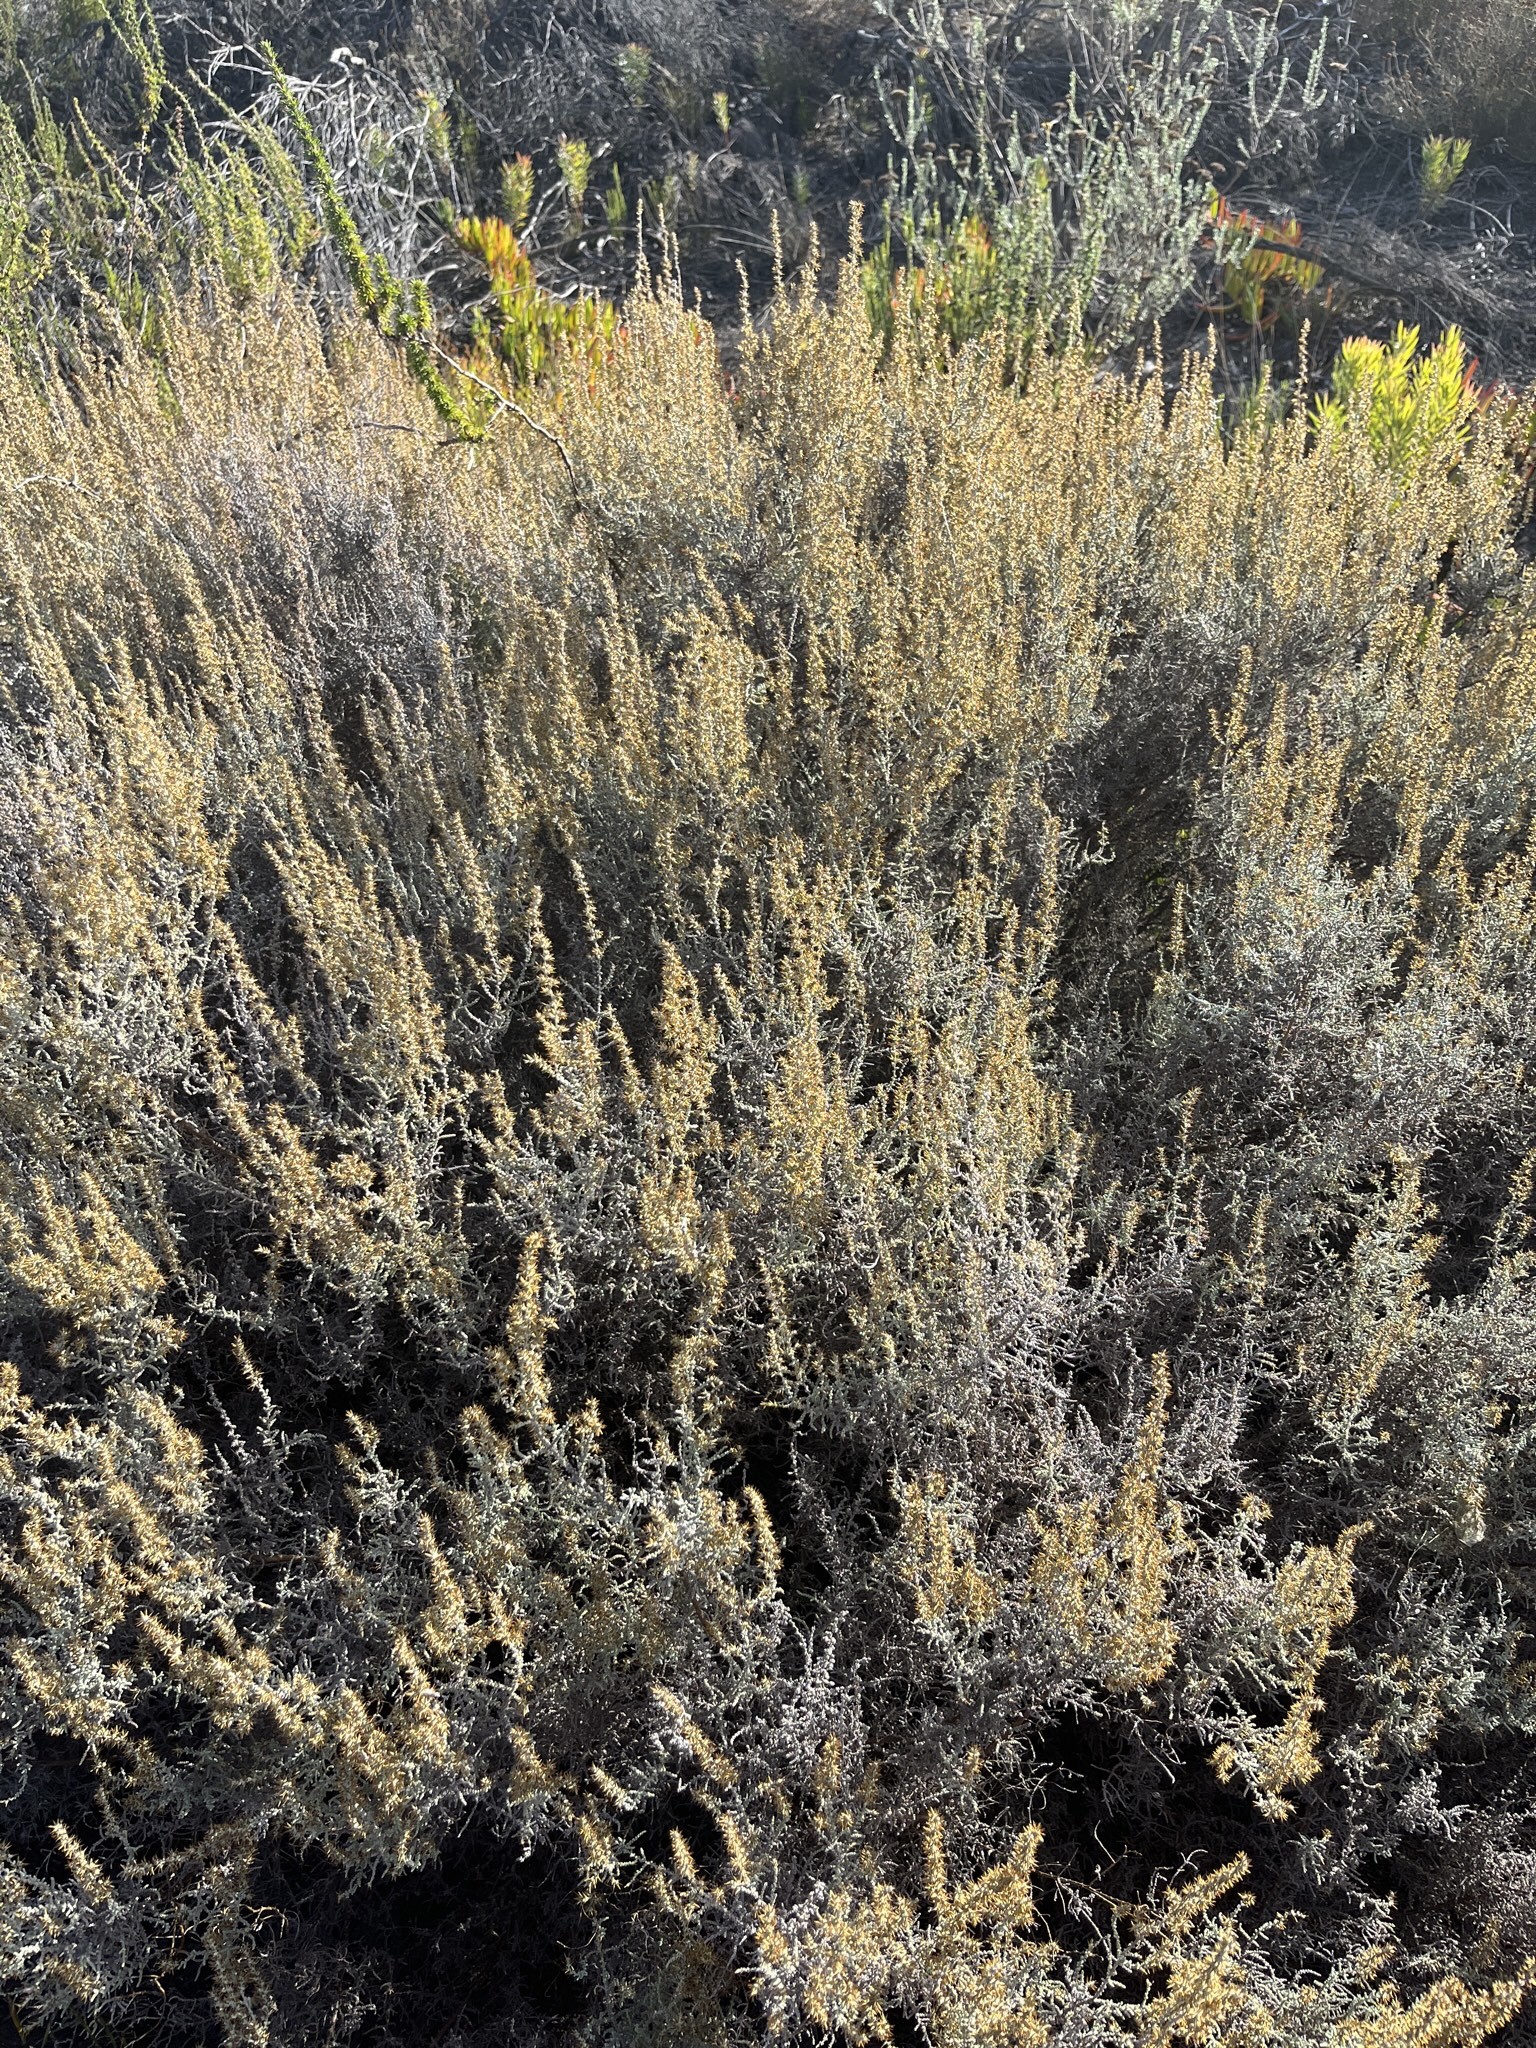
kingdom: Plantae
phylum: Tracheophyta
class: Magnoliopsida
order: Asterales
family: Asteraceae
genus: Seriphium
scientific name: Seriphium plumosum
